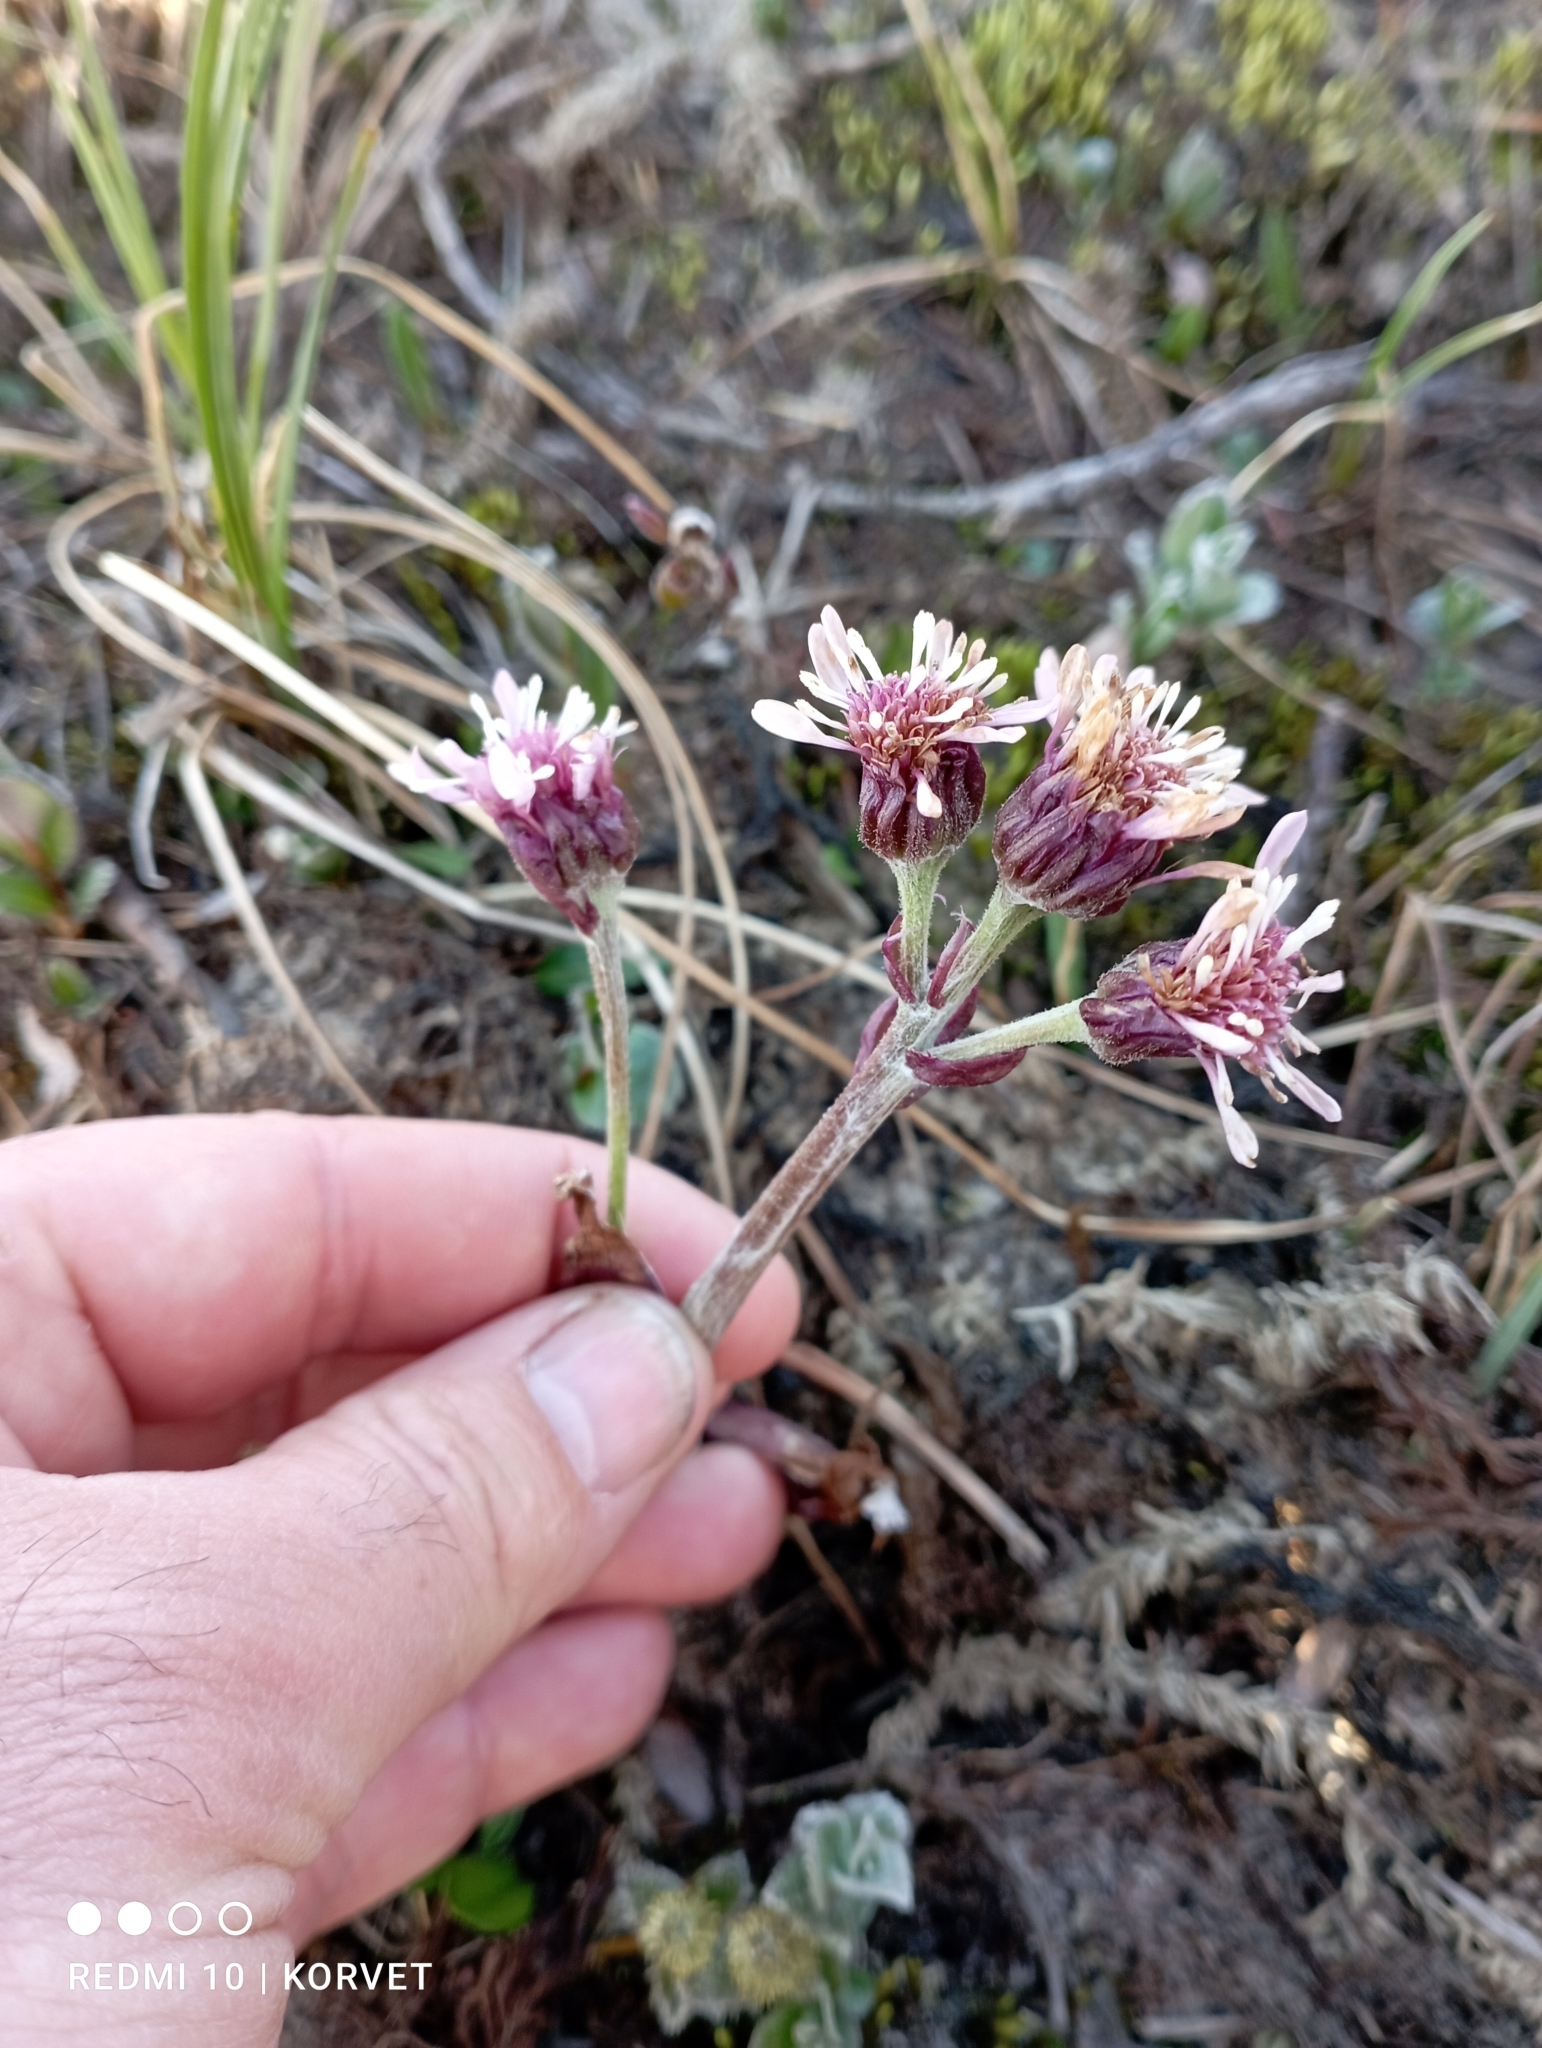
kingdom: Plantae
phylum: Tracheophyta
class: Magnoliopsida
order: Asterales
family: Asteraceae
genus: Petasites
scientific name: Petasites frigidus
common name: Arctic butterbur
